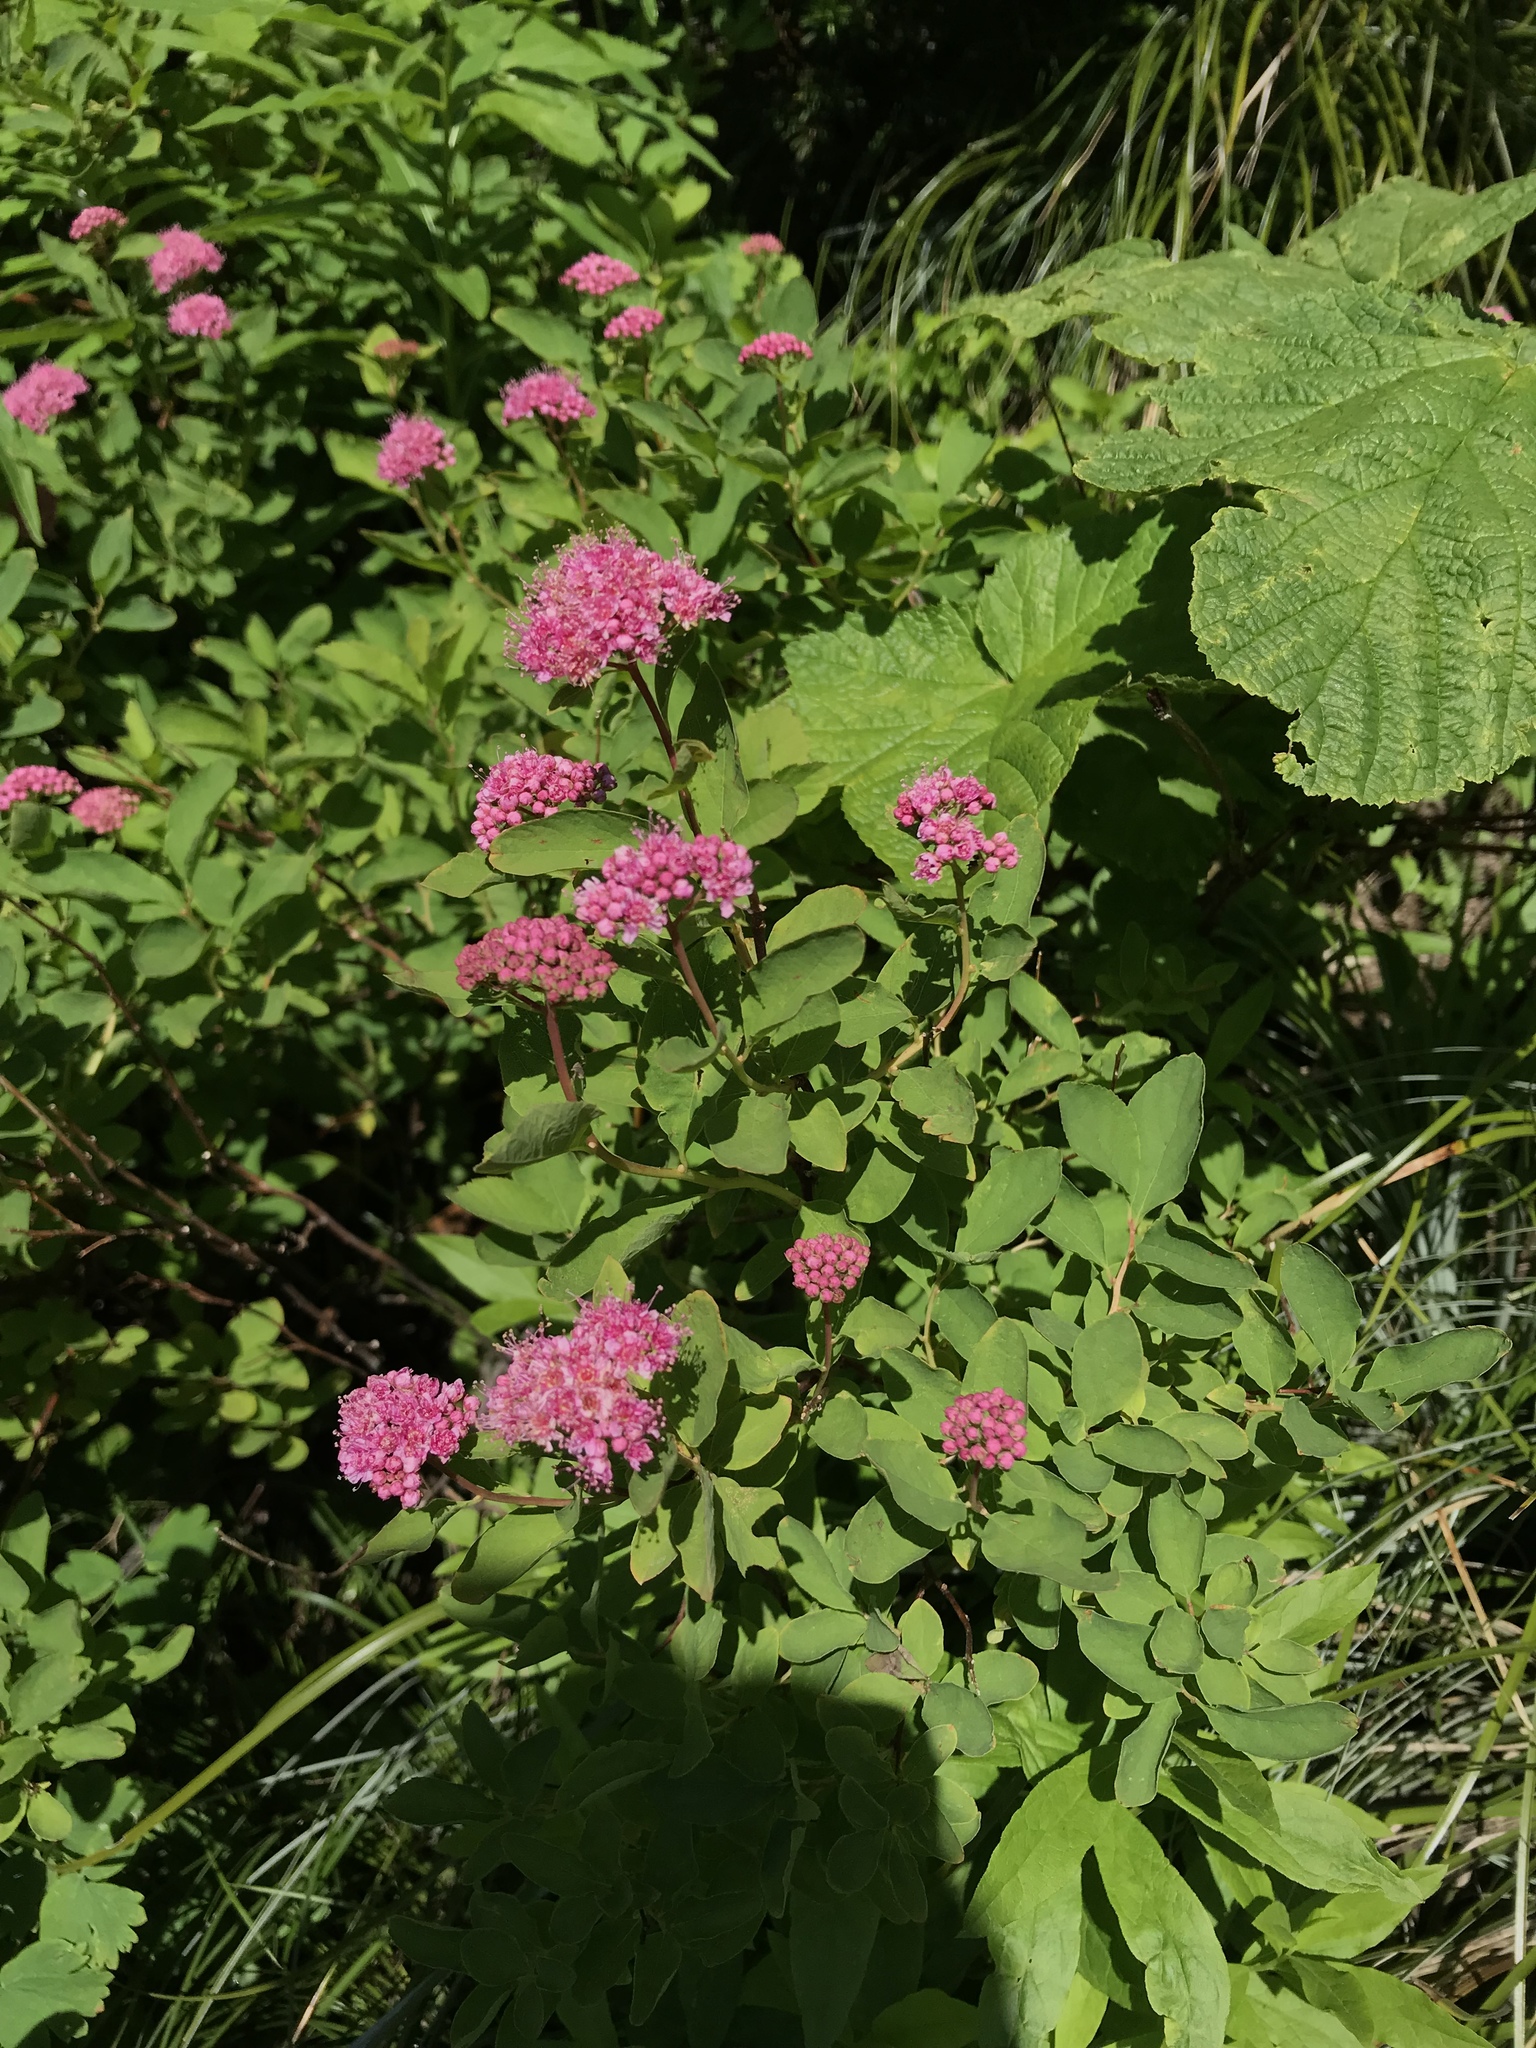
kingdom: Plantae
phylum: Tracheophyta
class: Magnoliopsida
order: Rosales
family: Rosaceae
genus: Spiraea
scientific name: Spiraea splendens
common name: Subalpine meadowsweet
